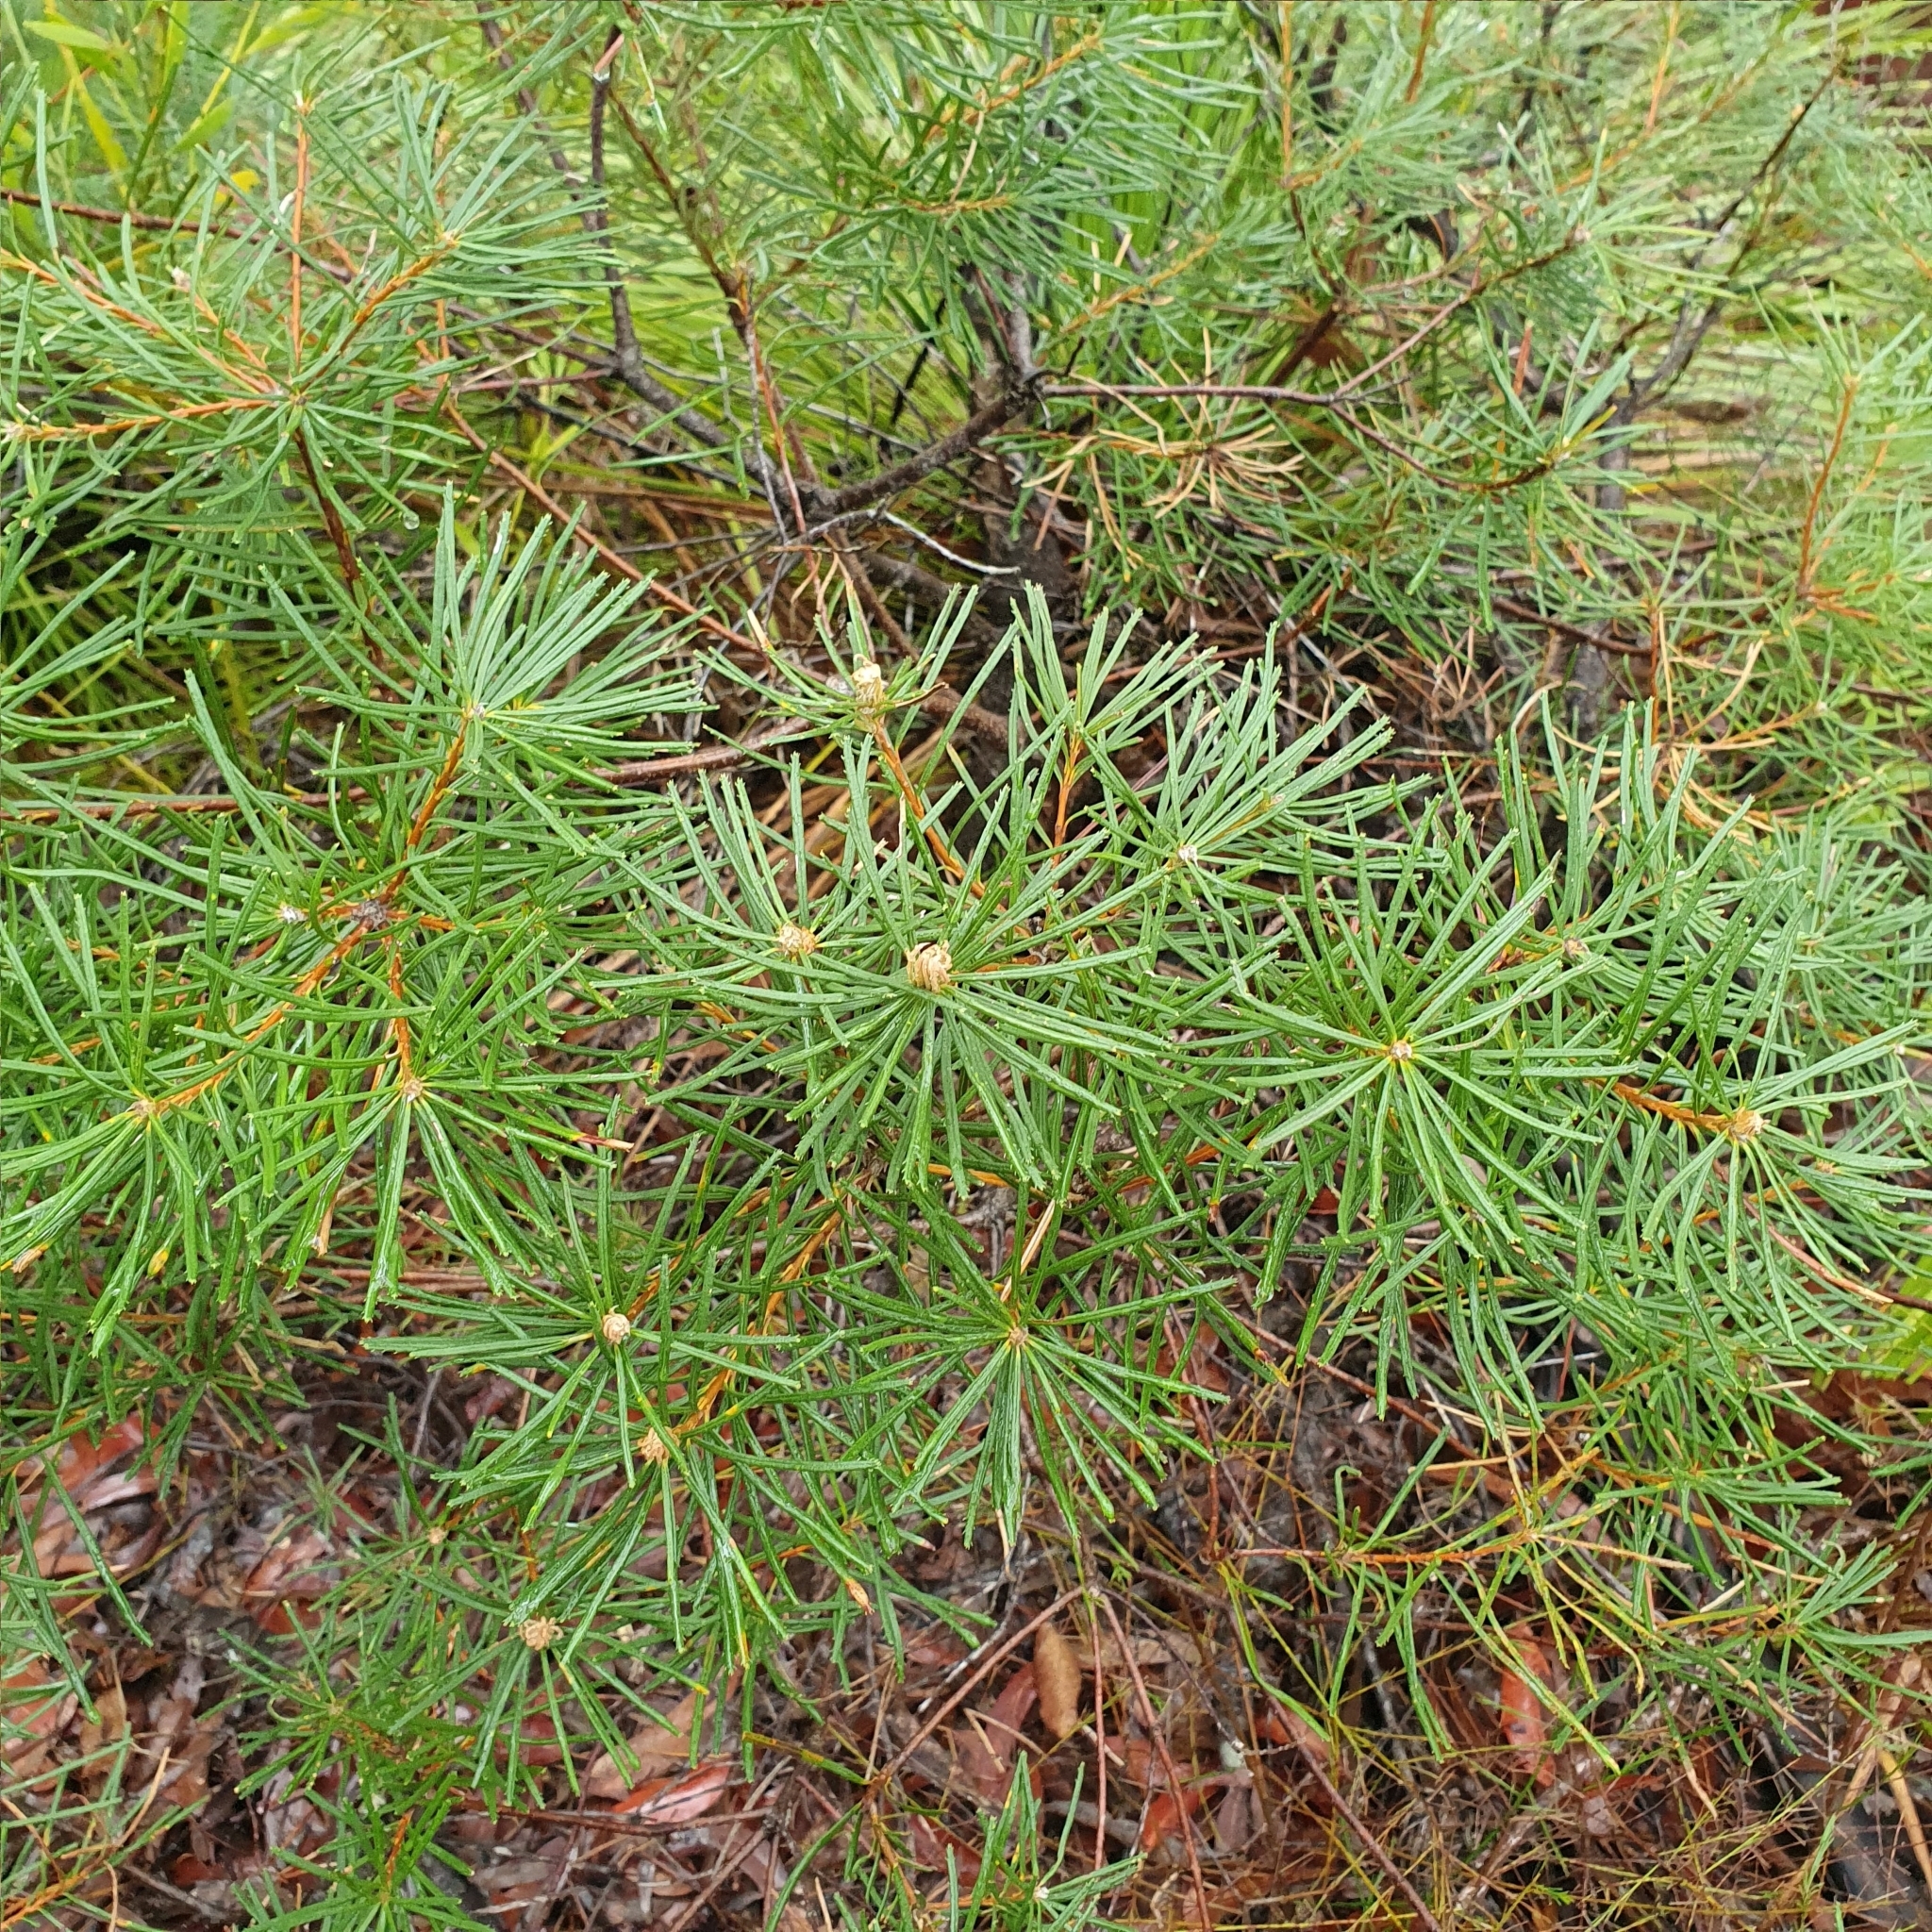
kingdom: Plantae
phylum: Tracheophyta
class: Magnoliopsida
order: Proteales
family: Proteaceae
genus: Banksia
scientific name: Banksia spinulosa
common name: Hairpin banksia
